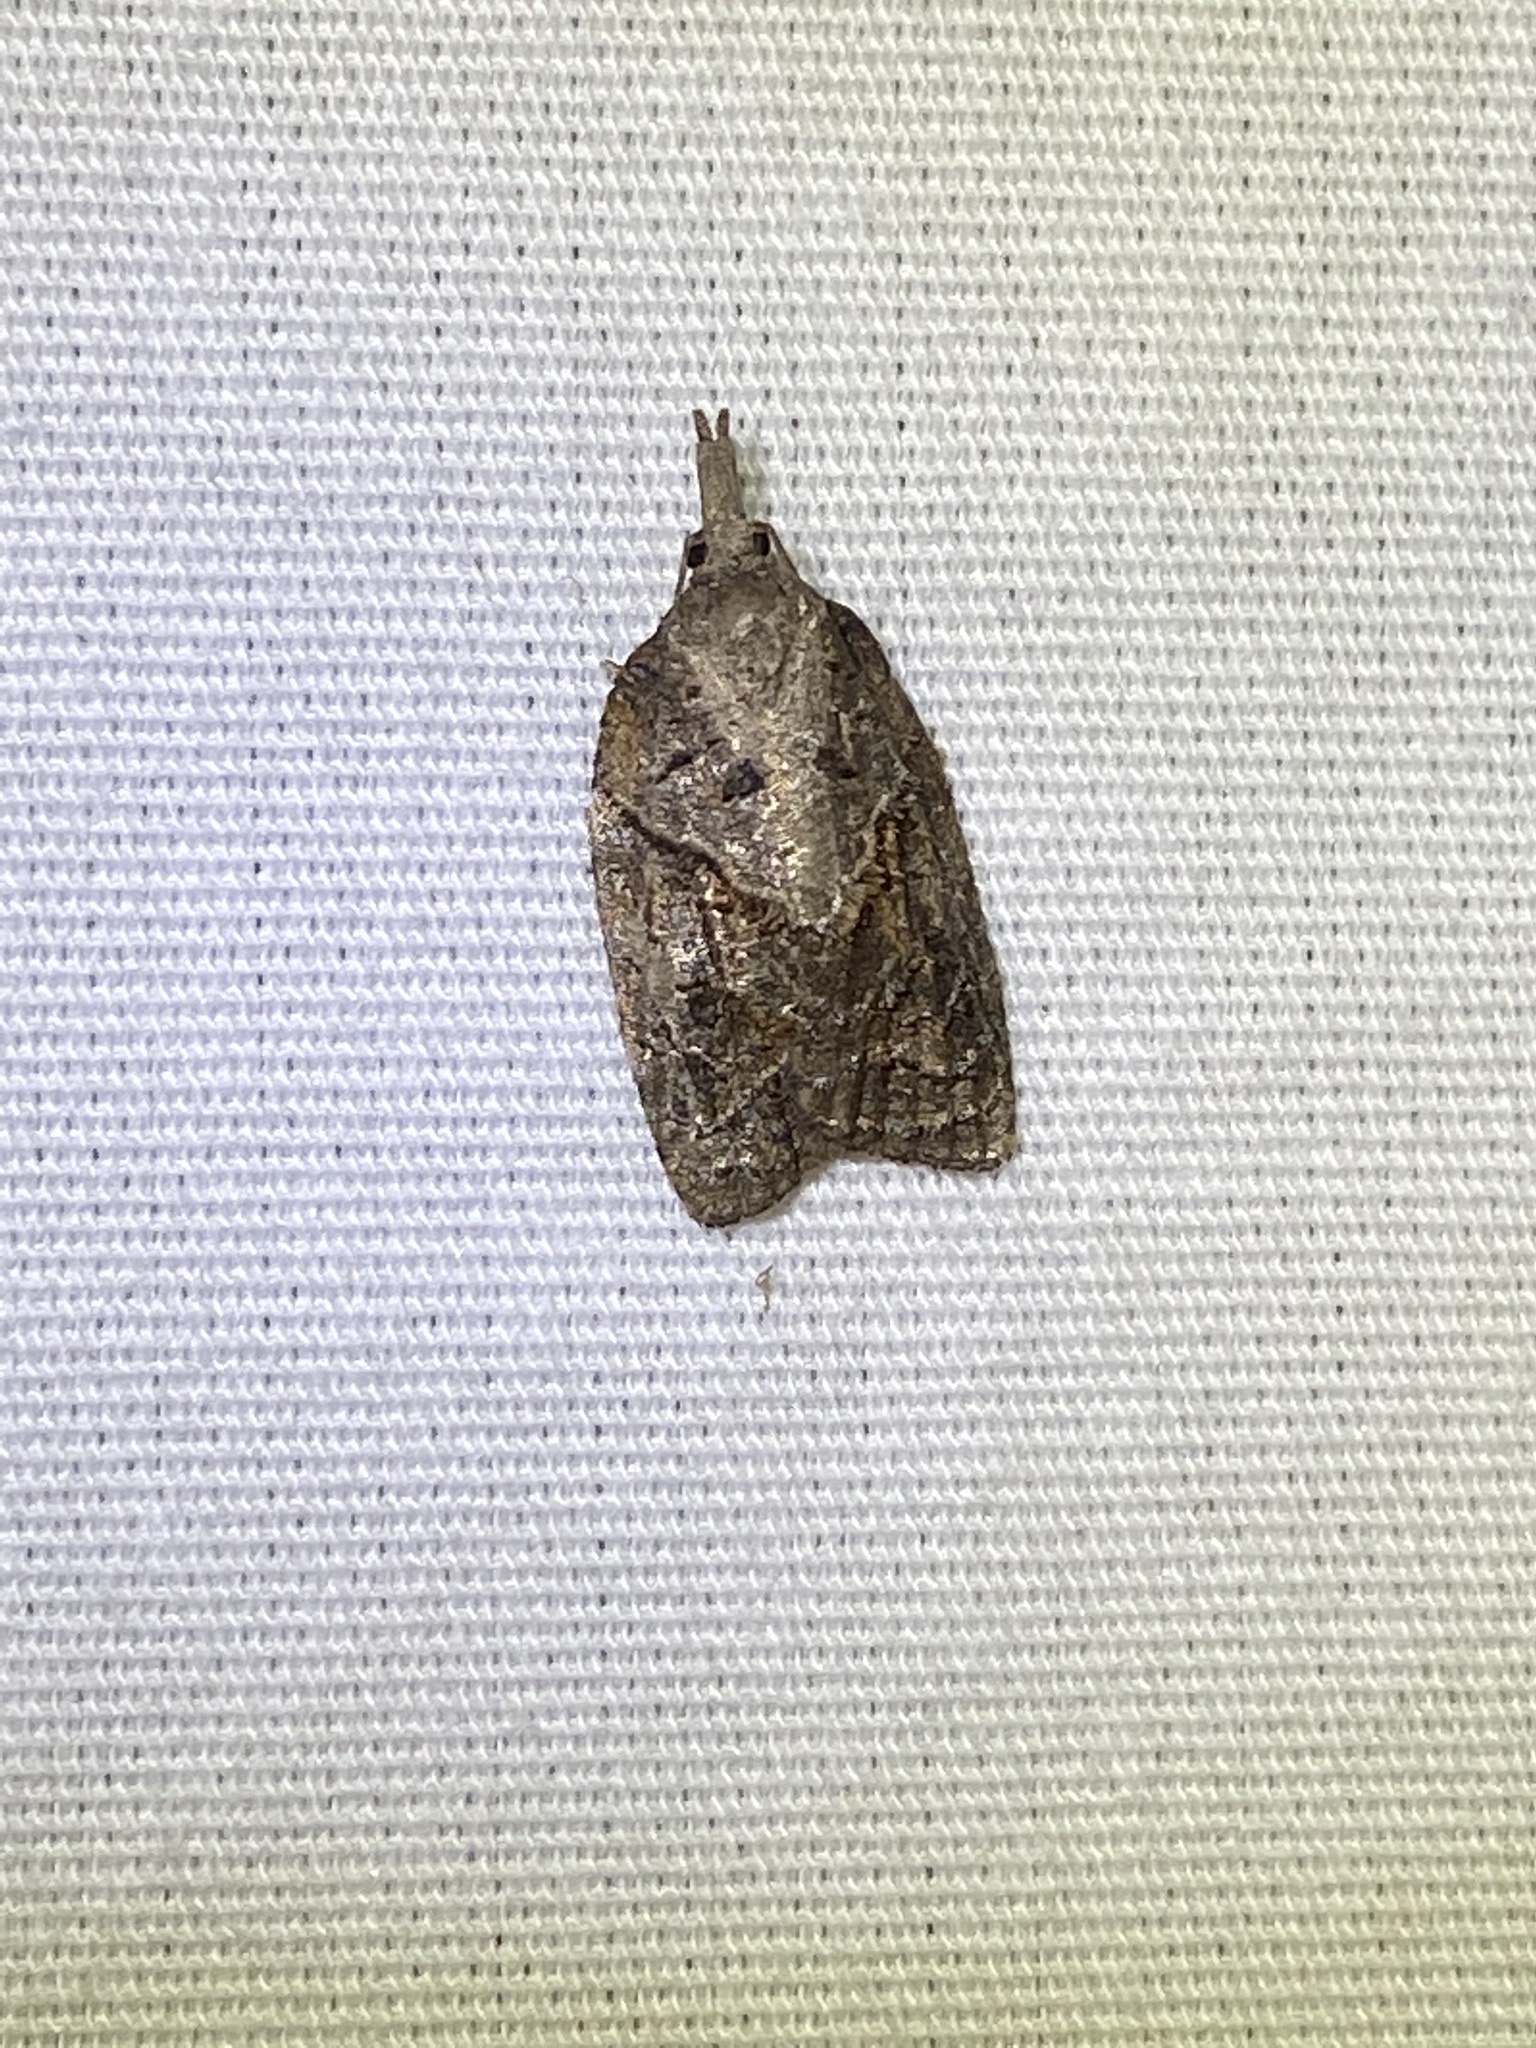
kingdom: Animalia
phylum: Arthropoda
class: Insecta
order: Lepidoptera
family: Tortricidae
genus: Platynota
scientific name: Platynota idaeusalis
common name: Tufted apple bud moth
